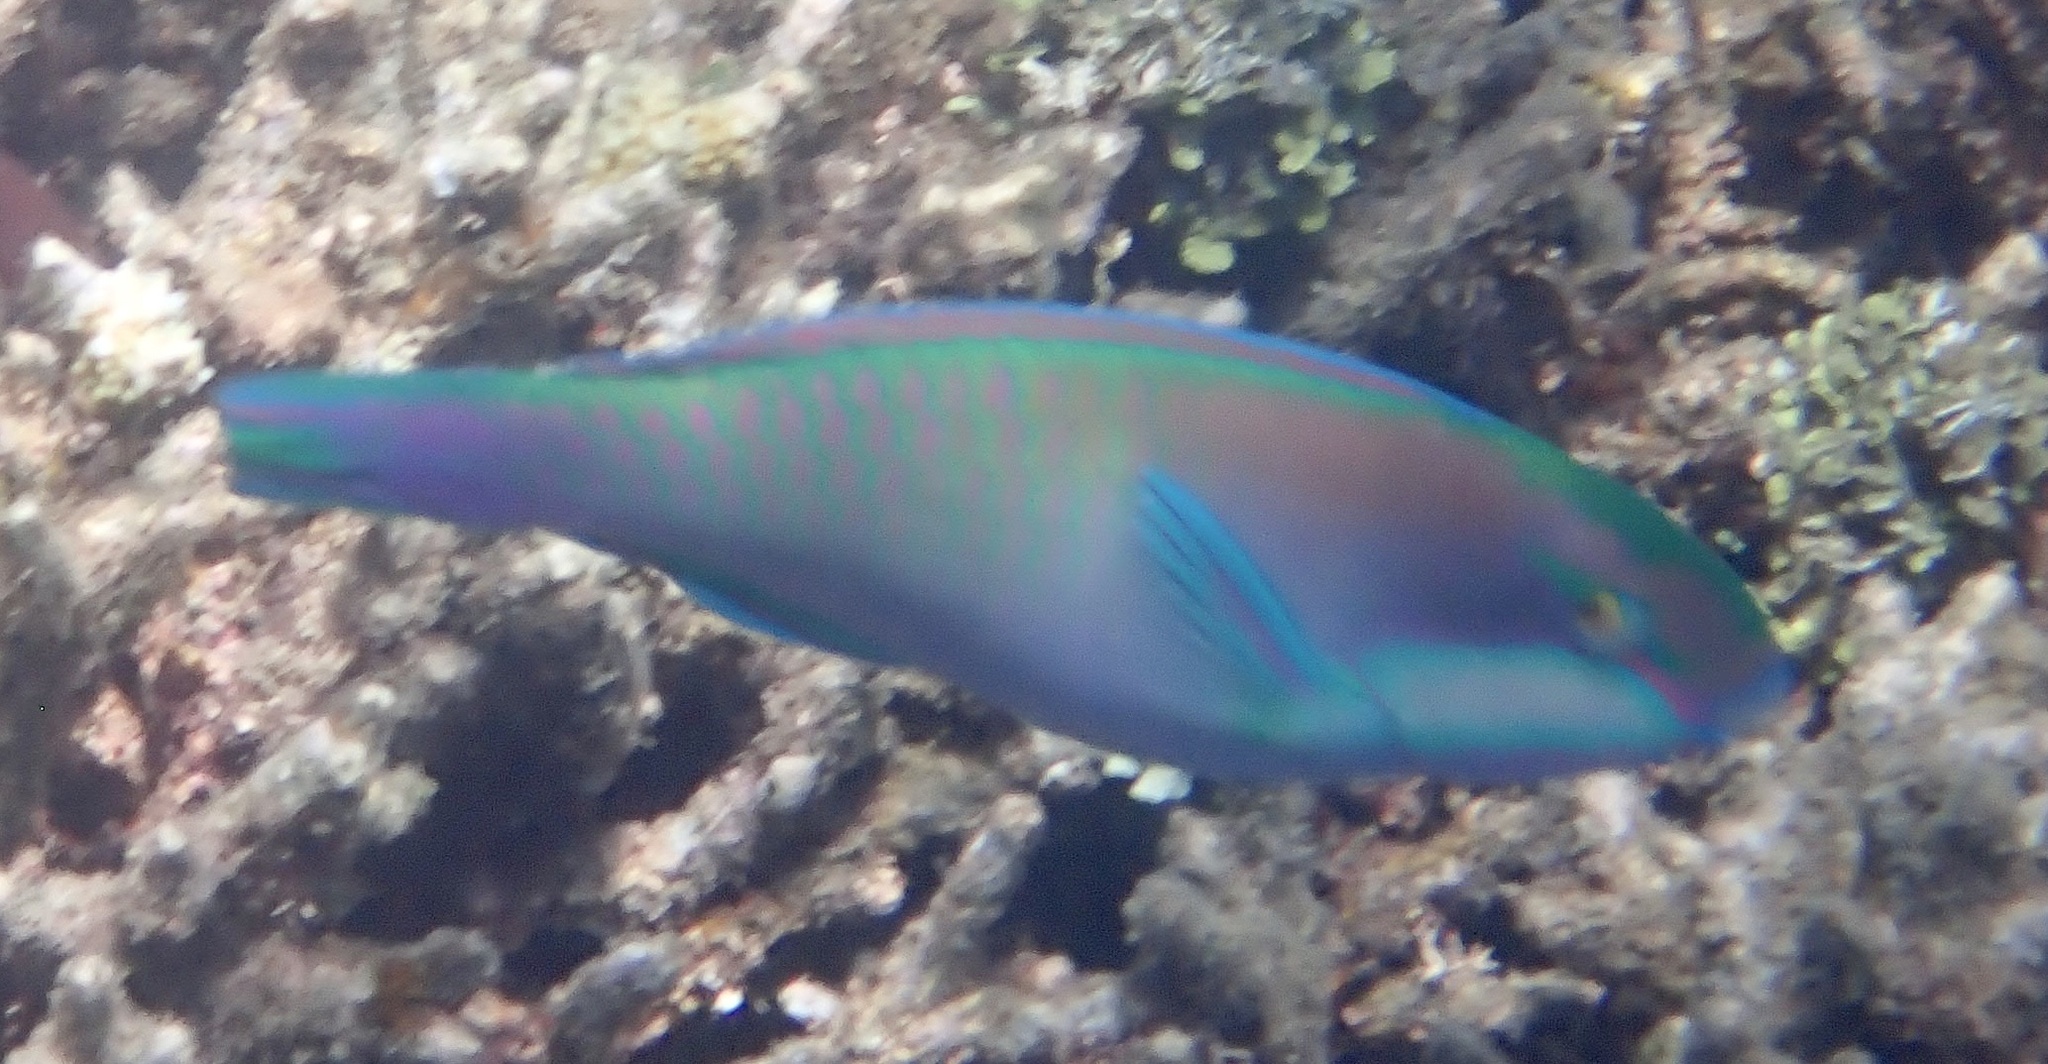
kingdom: Animalia
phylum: Chordata
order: Perciformes
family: Scaridae
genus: Chlorurus
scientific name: Chlorurus bleekeri
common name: Bleeker's parrotfish
